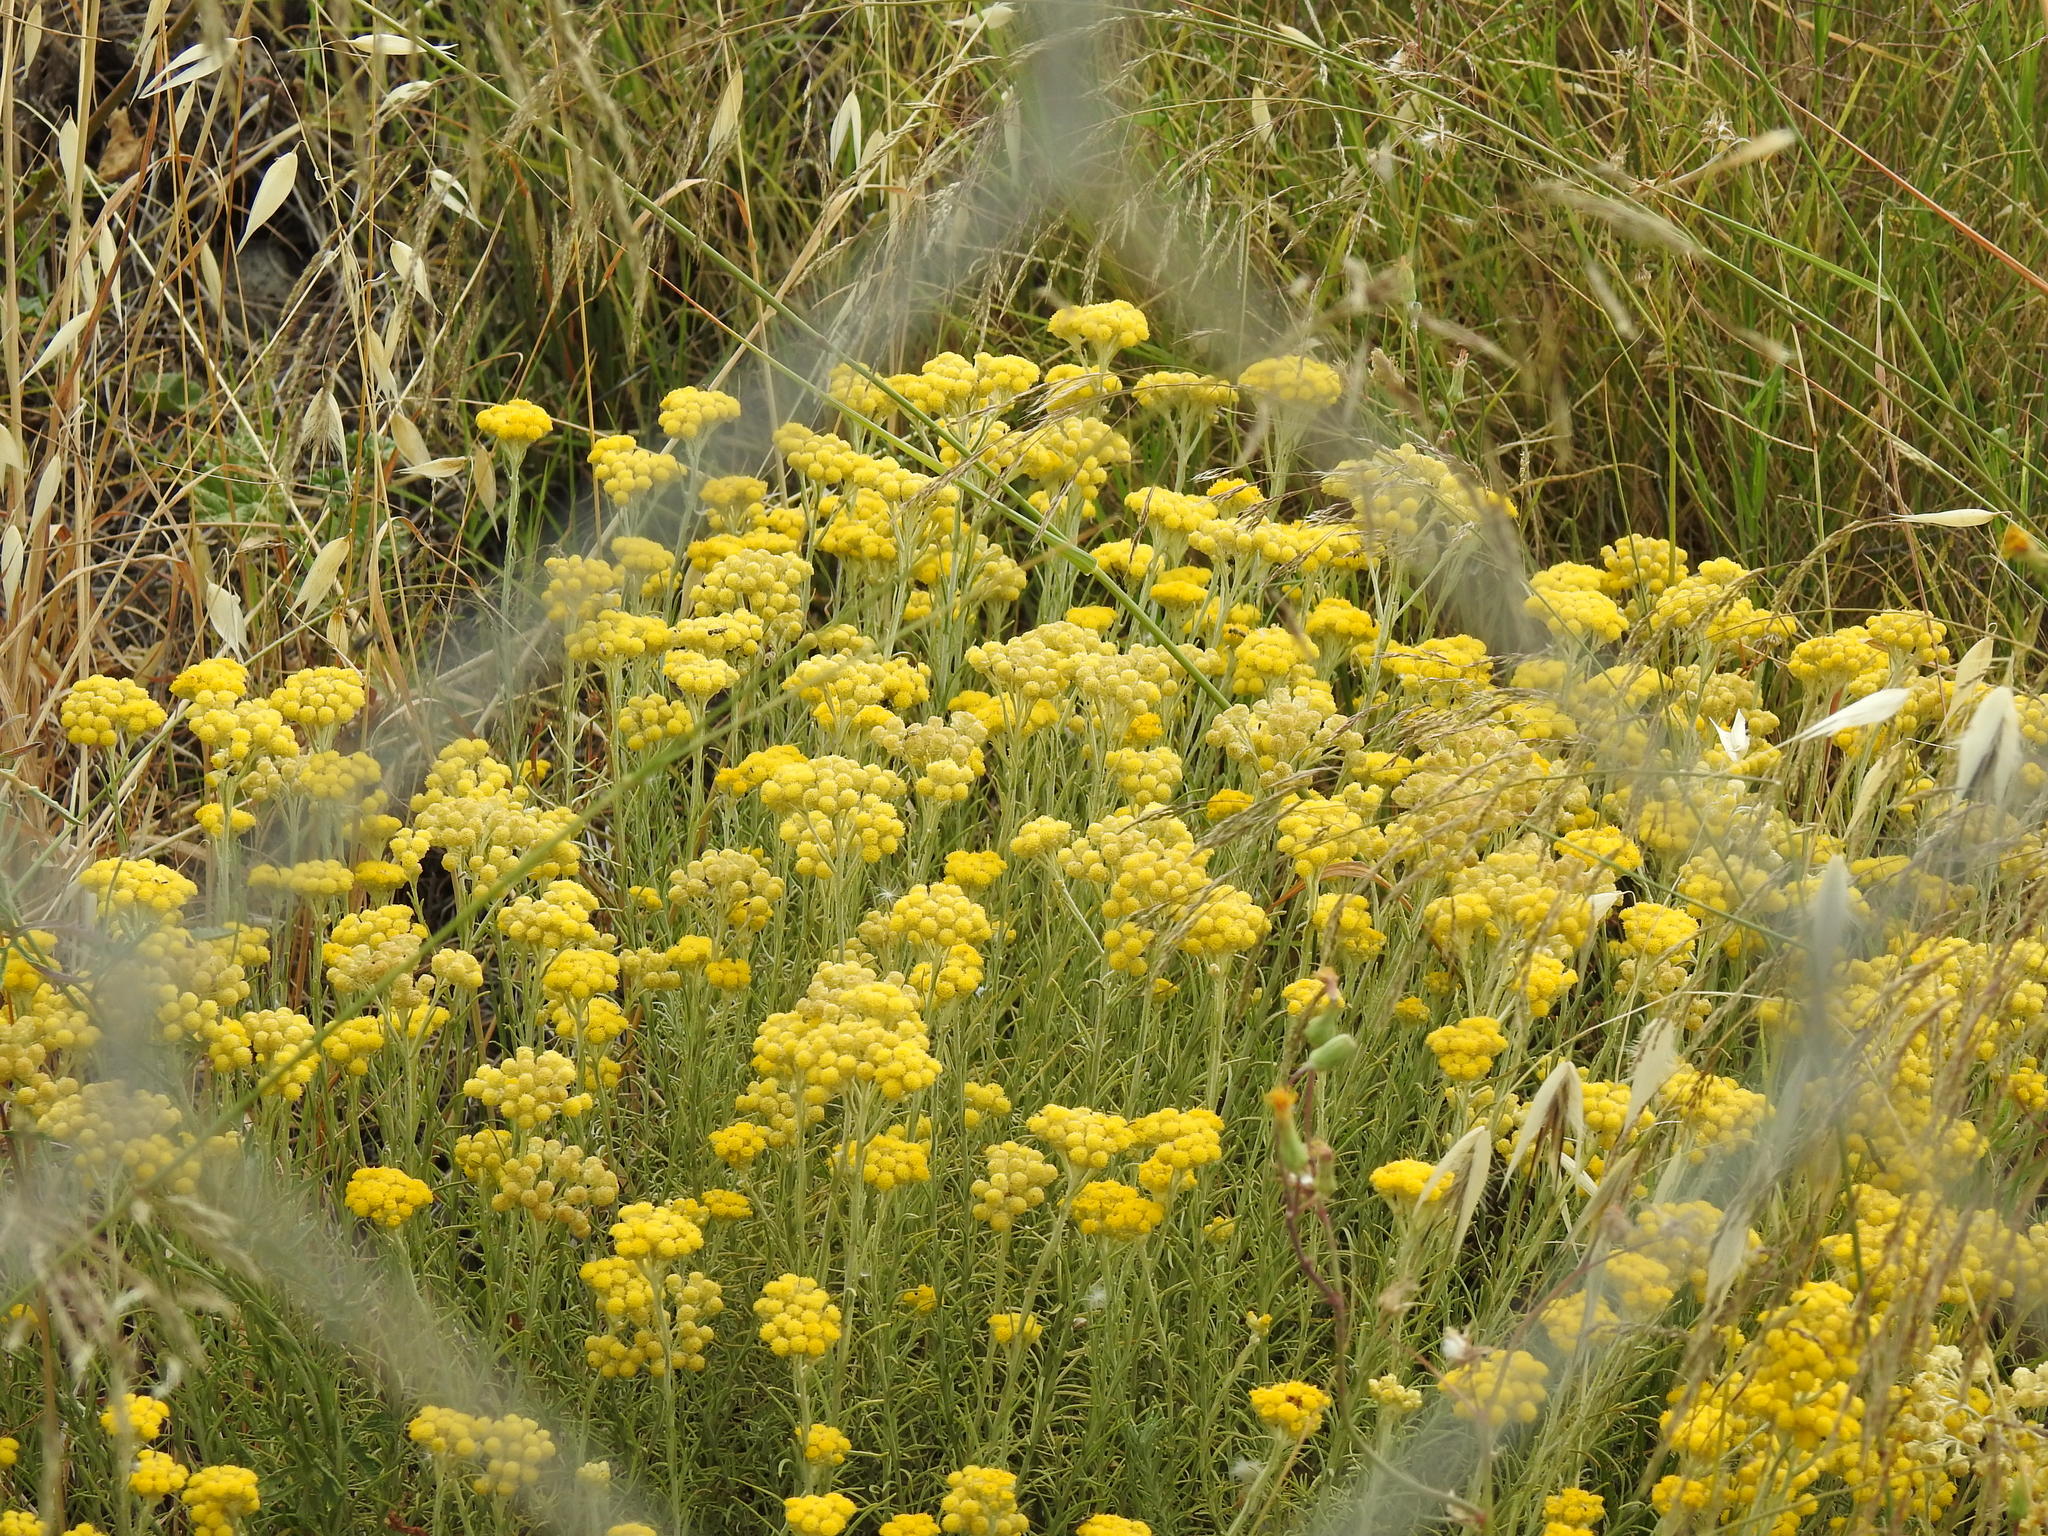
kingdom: Plantae
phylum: Tracheophyta
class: Magnoliopsida
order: Asterales
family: Asteraceae
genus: Helichrysum
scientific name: Helichrysum stoechas
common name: Goldilocks
